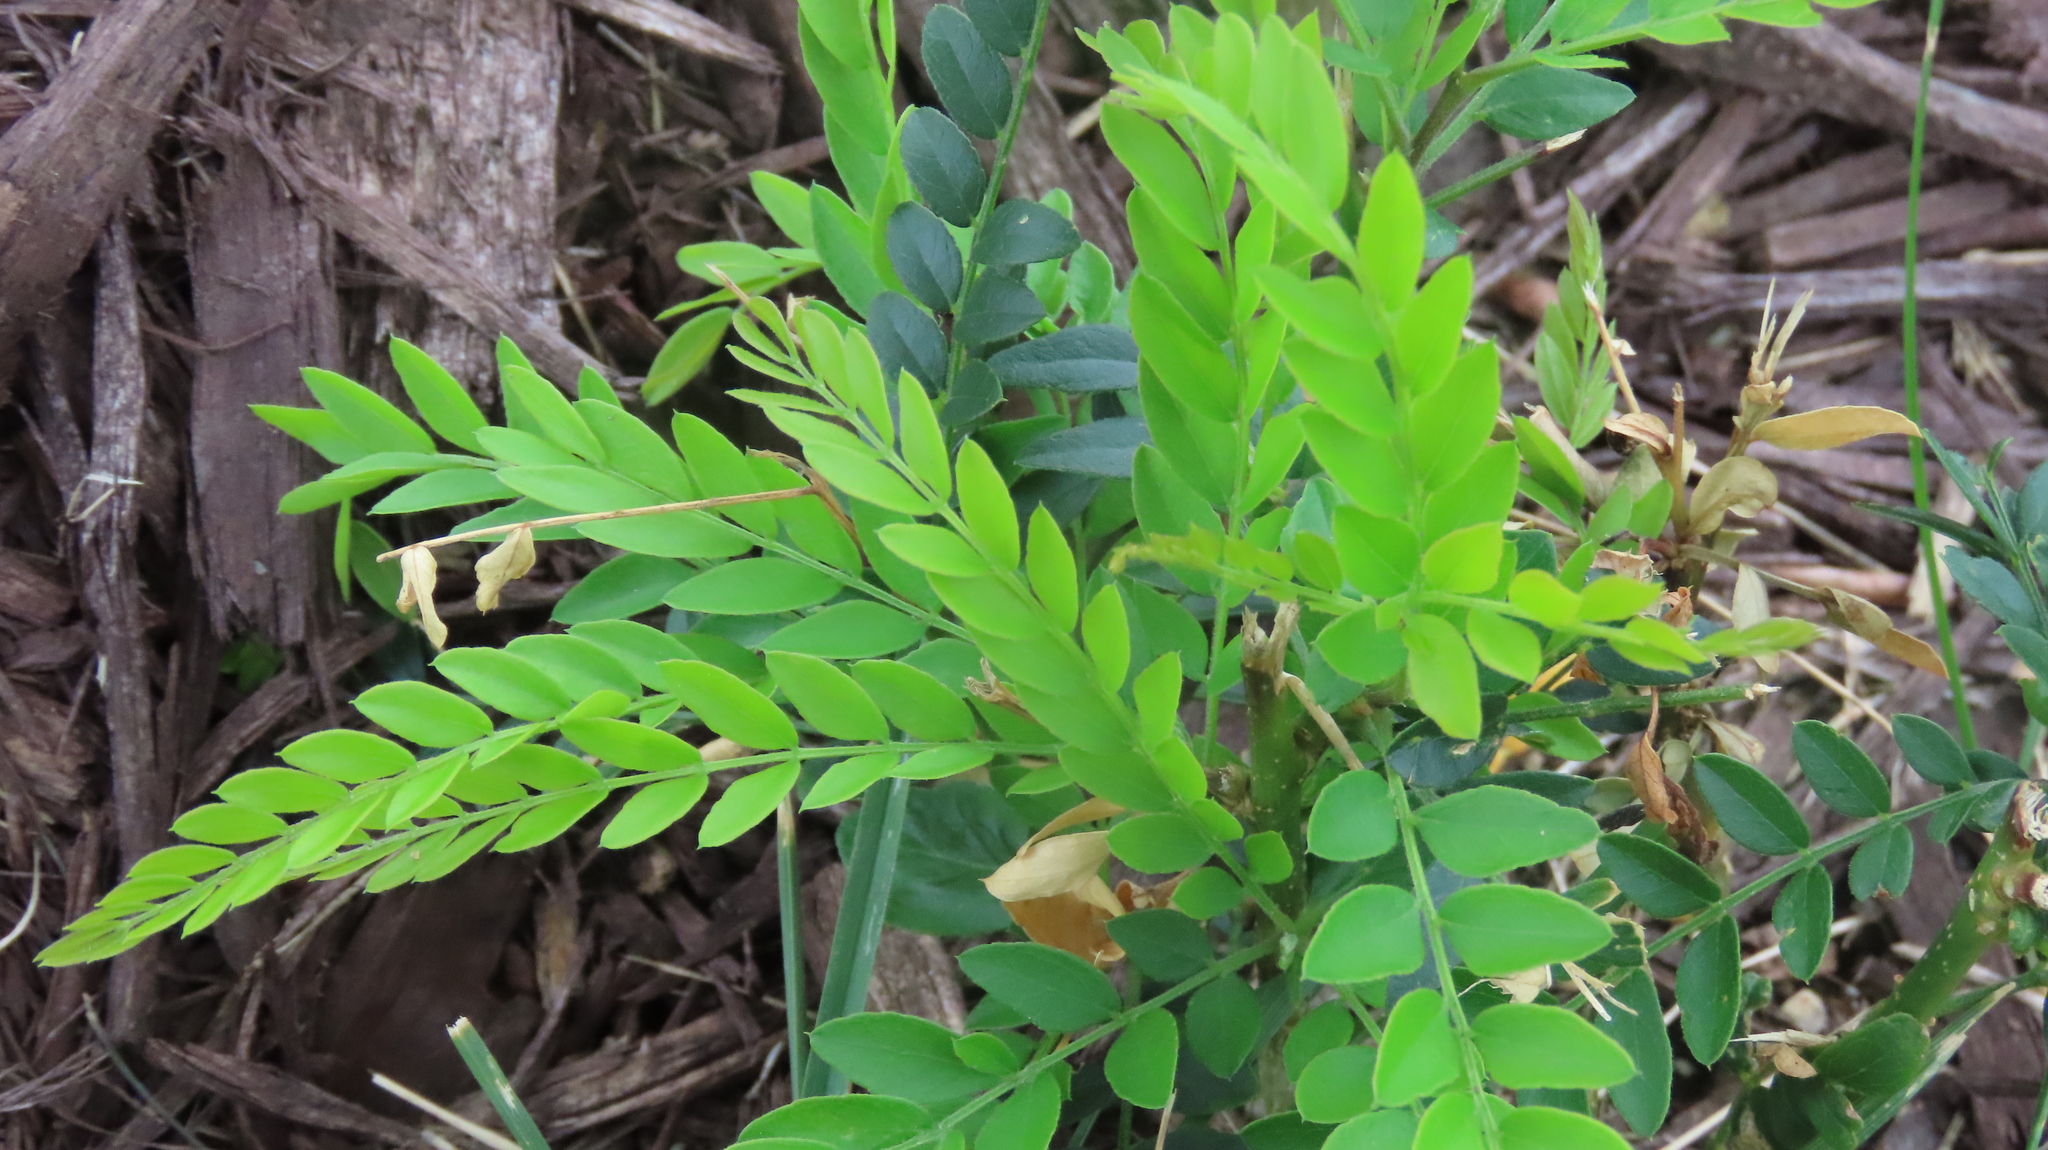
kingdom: Plantae
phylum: Tracheophyta
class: Magnoliopsida
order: Fabales
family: Fabaceae
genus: Gleditsia
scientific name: Gleditsia triacanthos
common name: Common honeylocust
